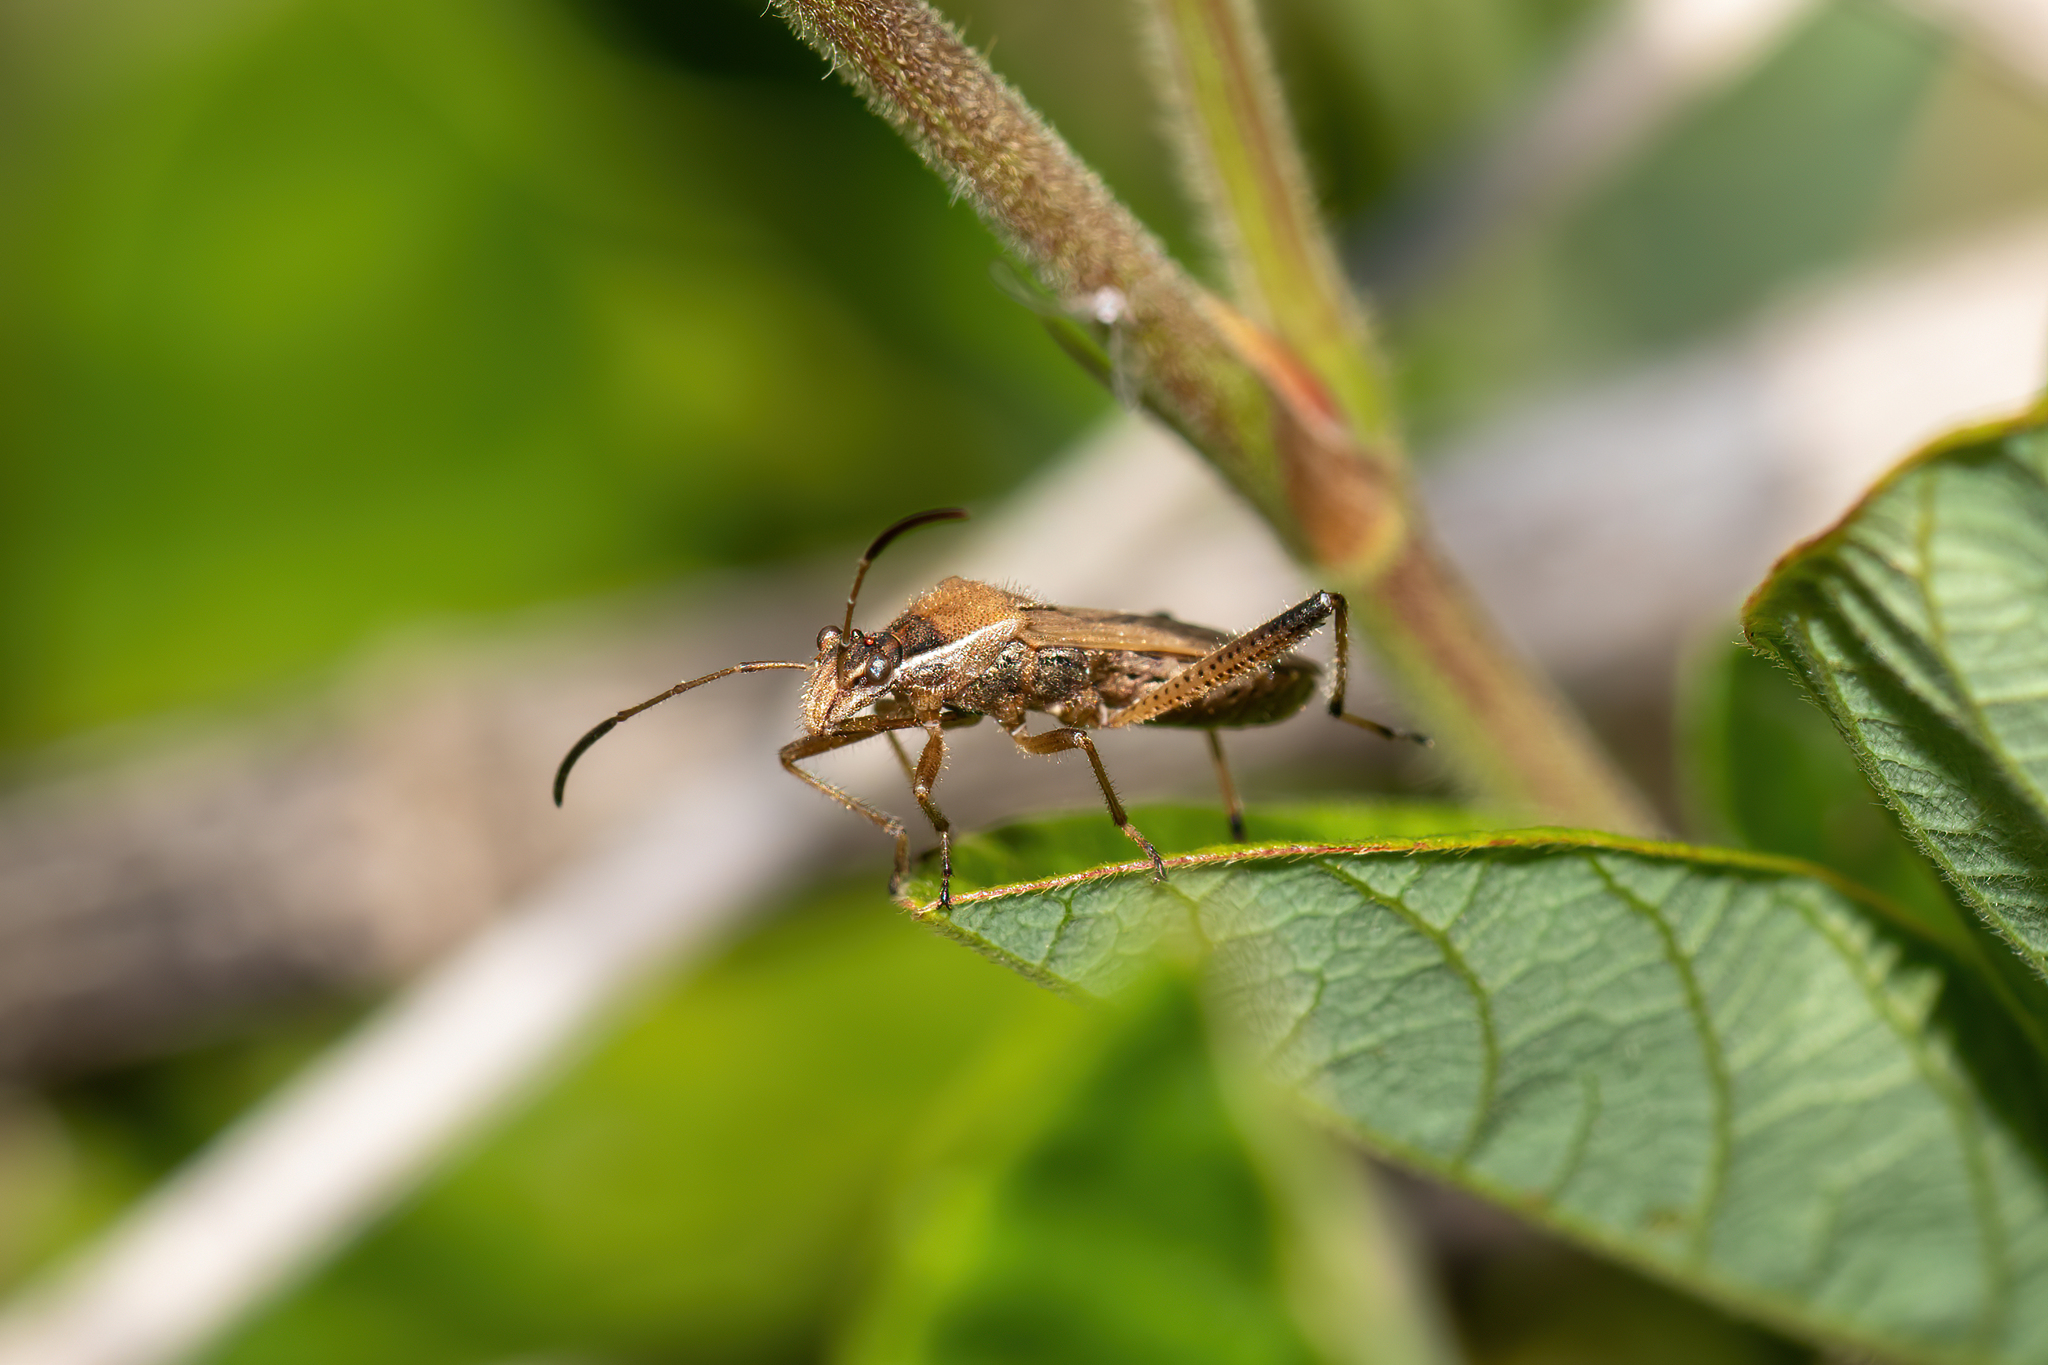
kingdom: Animalia
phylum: Arthropoda
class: Insecta
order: Hemiptera
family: Alydidae
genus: Alydus
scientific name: Alydus pilosulus
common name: Broad-headed bug
